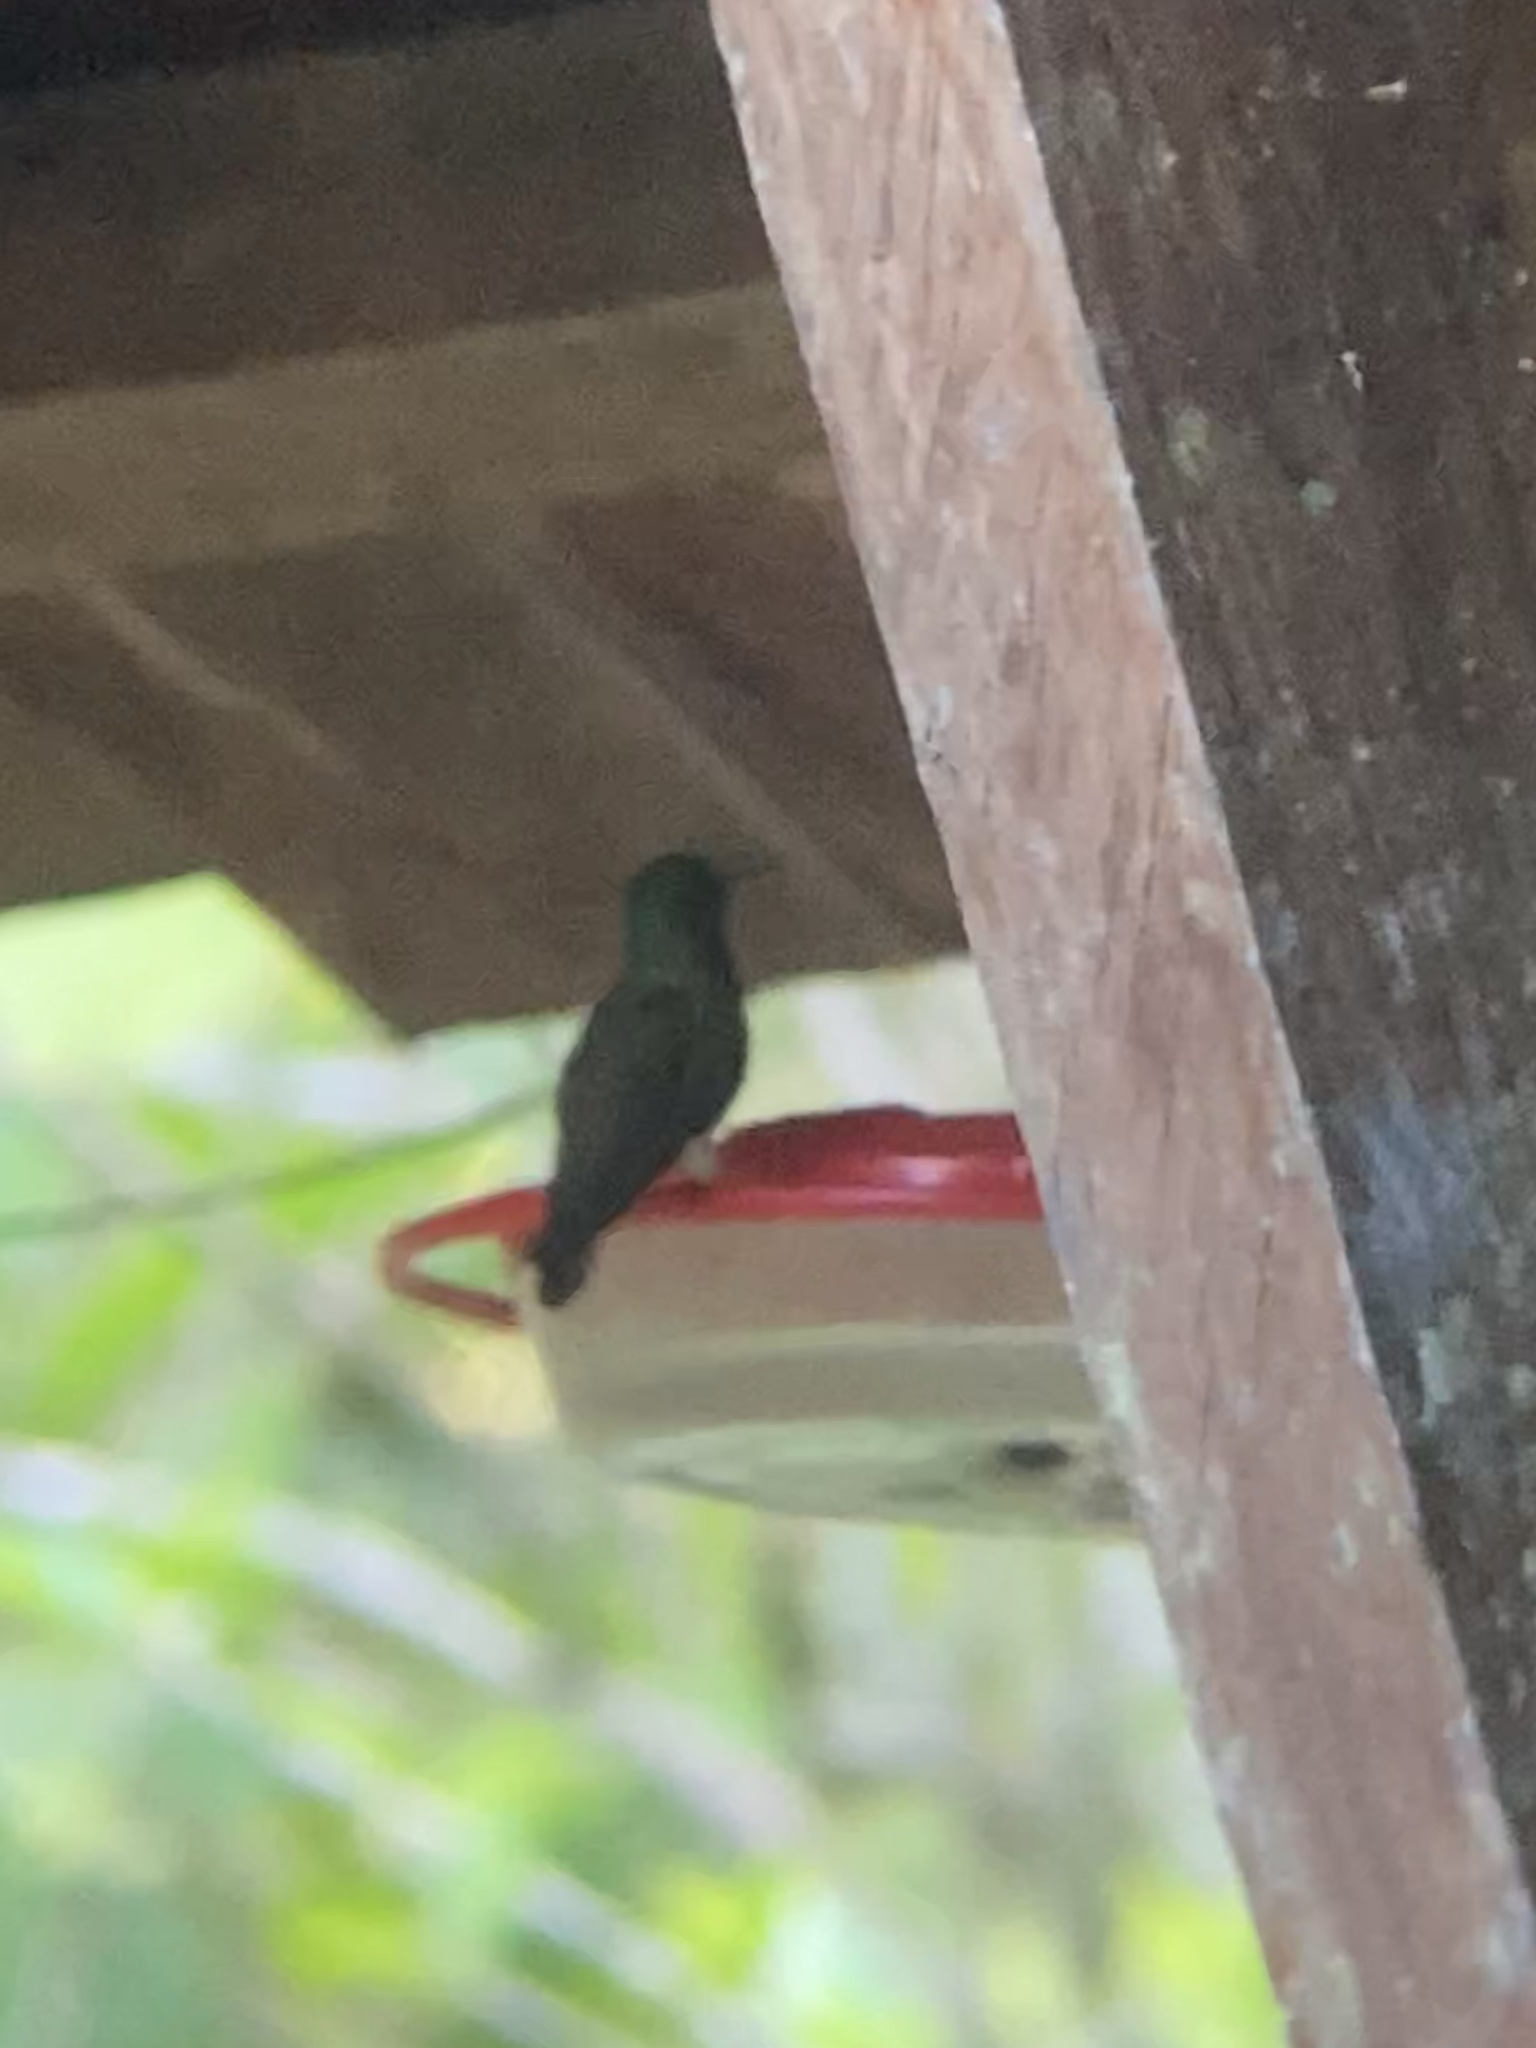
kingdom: Animalia
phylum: Chordata
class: Aves
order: Apodiformes
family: Trochilidae
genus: Saucerottia
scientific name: Saucerottia cyanura
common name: Blue-tailed hummingbird
